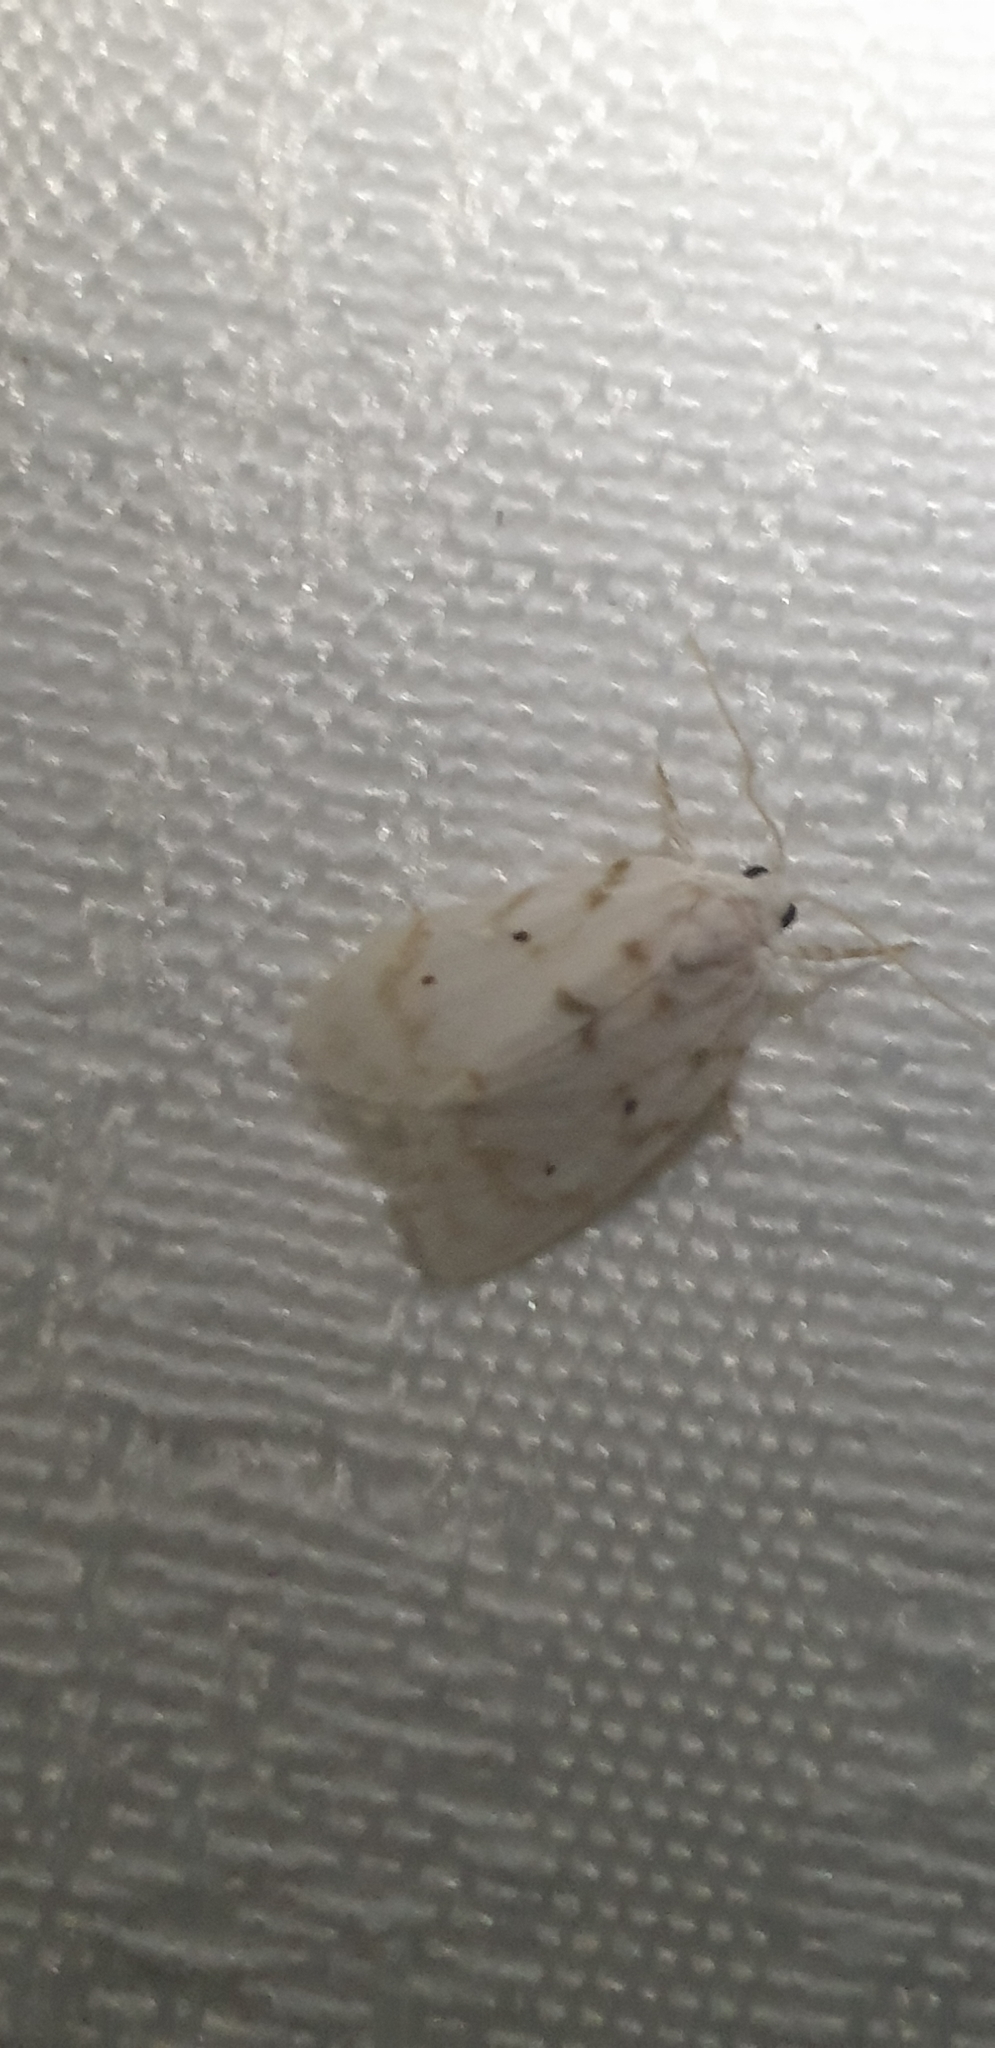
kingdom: Animalia
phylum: Arthropoda
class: Insecta
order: Lepidoptera
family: Erebidae
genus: Schistophleps
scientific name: Schistophleps albida
